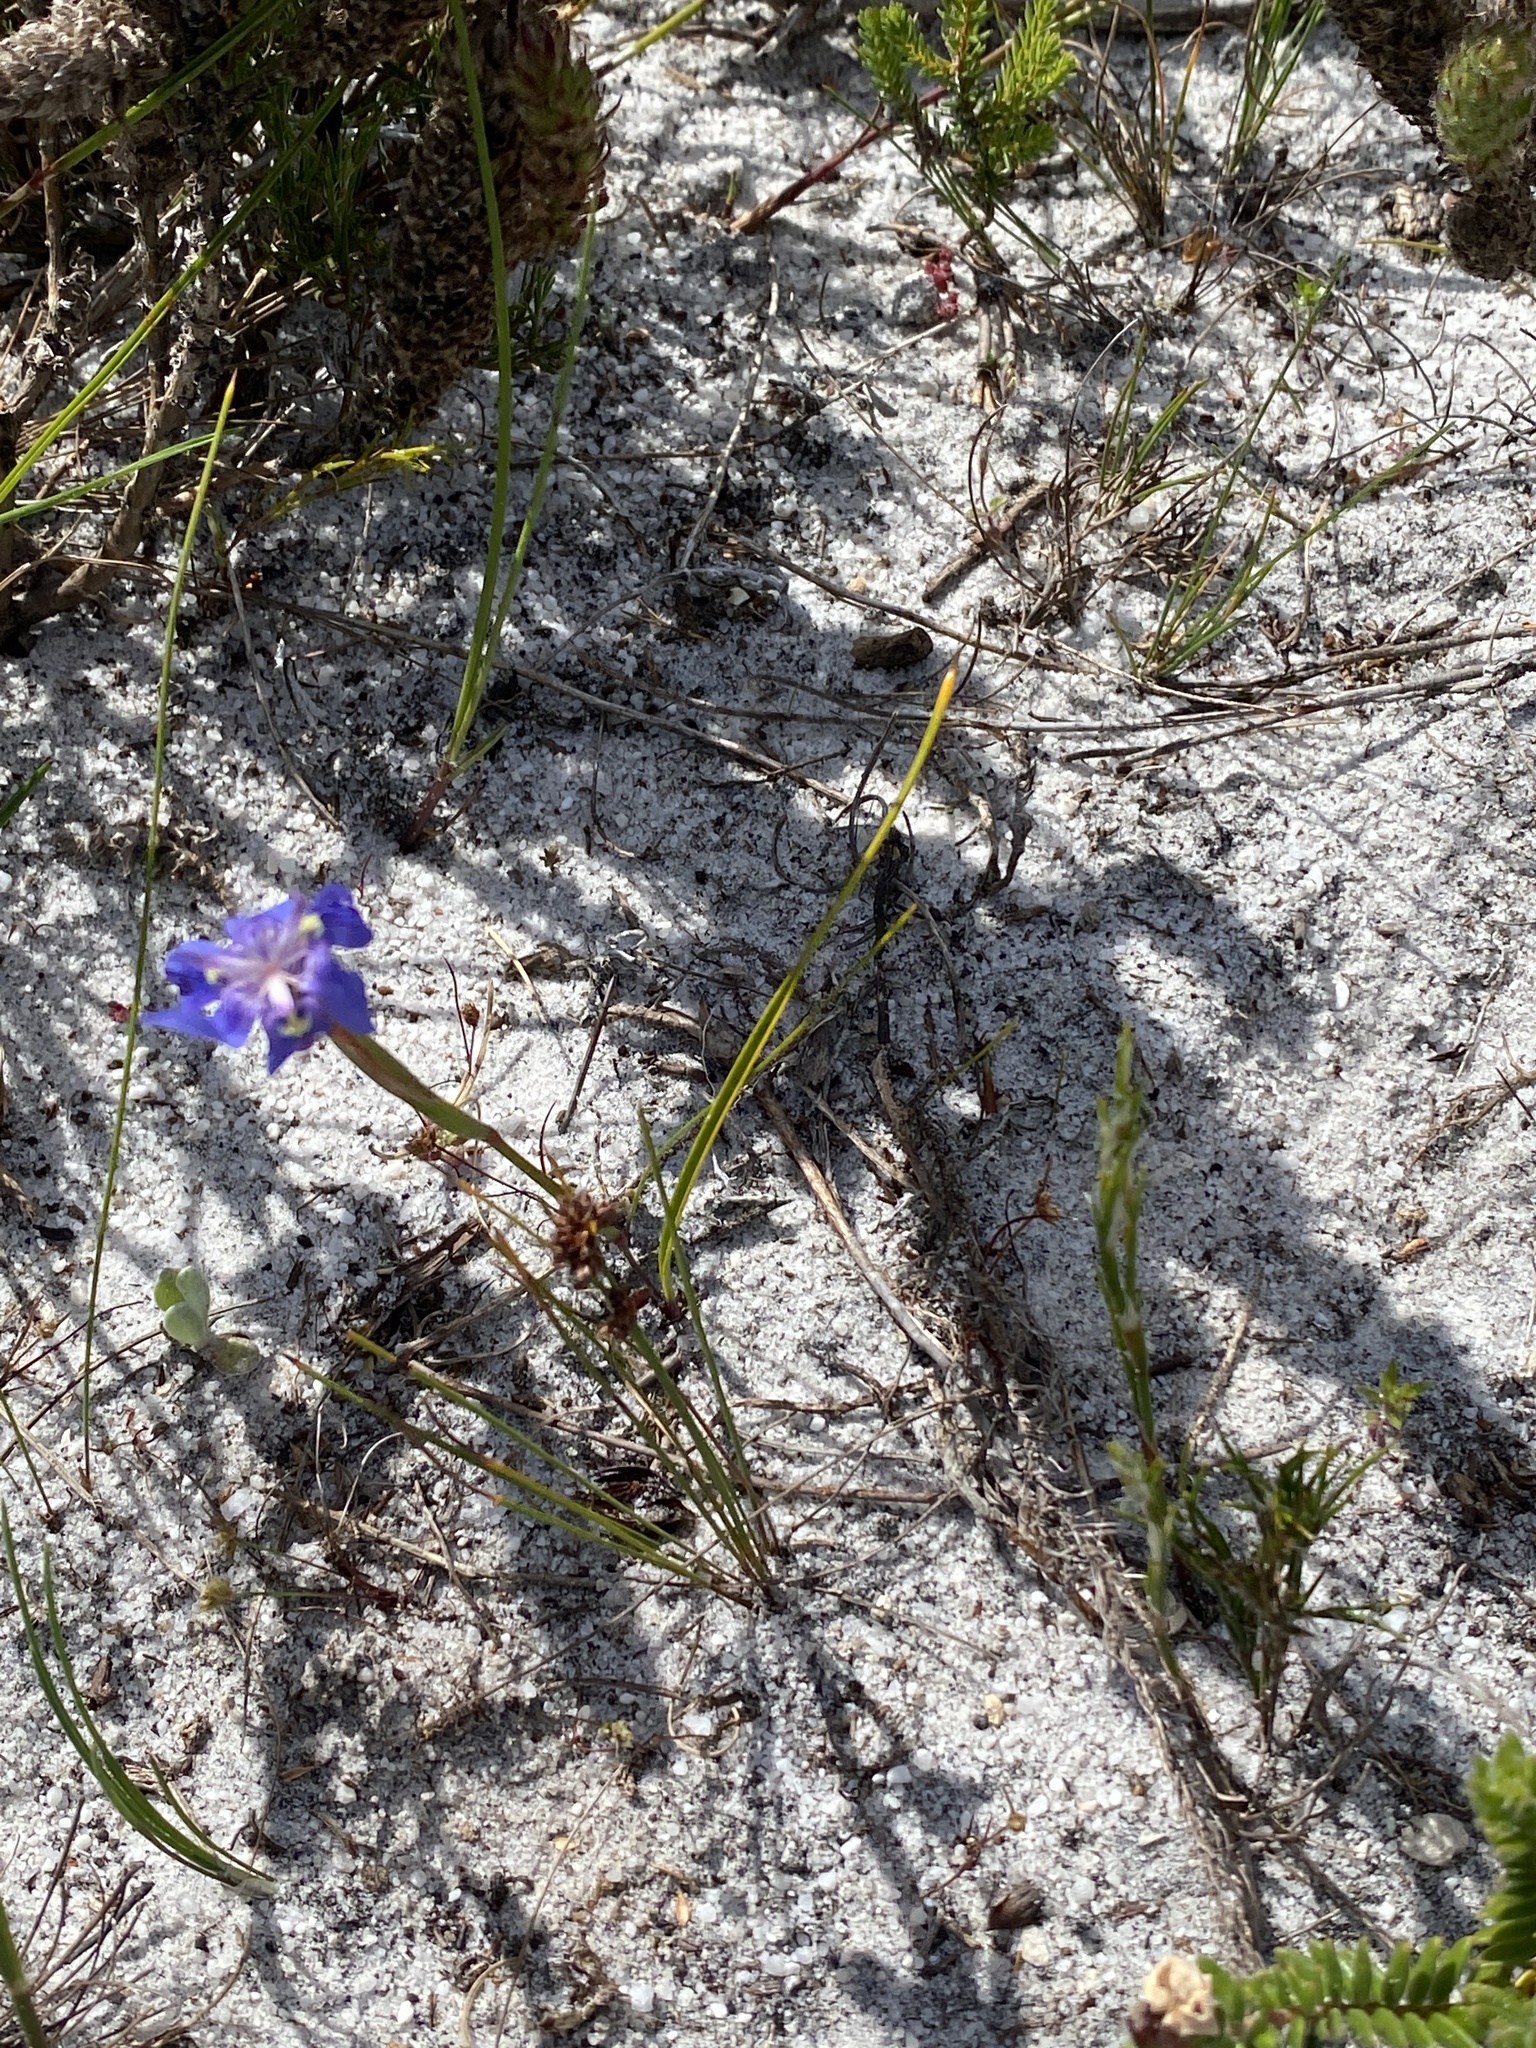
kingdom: Plantae
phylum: Tracheophyta
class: Liliopsida
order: Asparagales
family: Iridaceae
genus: Moraea
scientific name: Moraea lugubris
